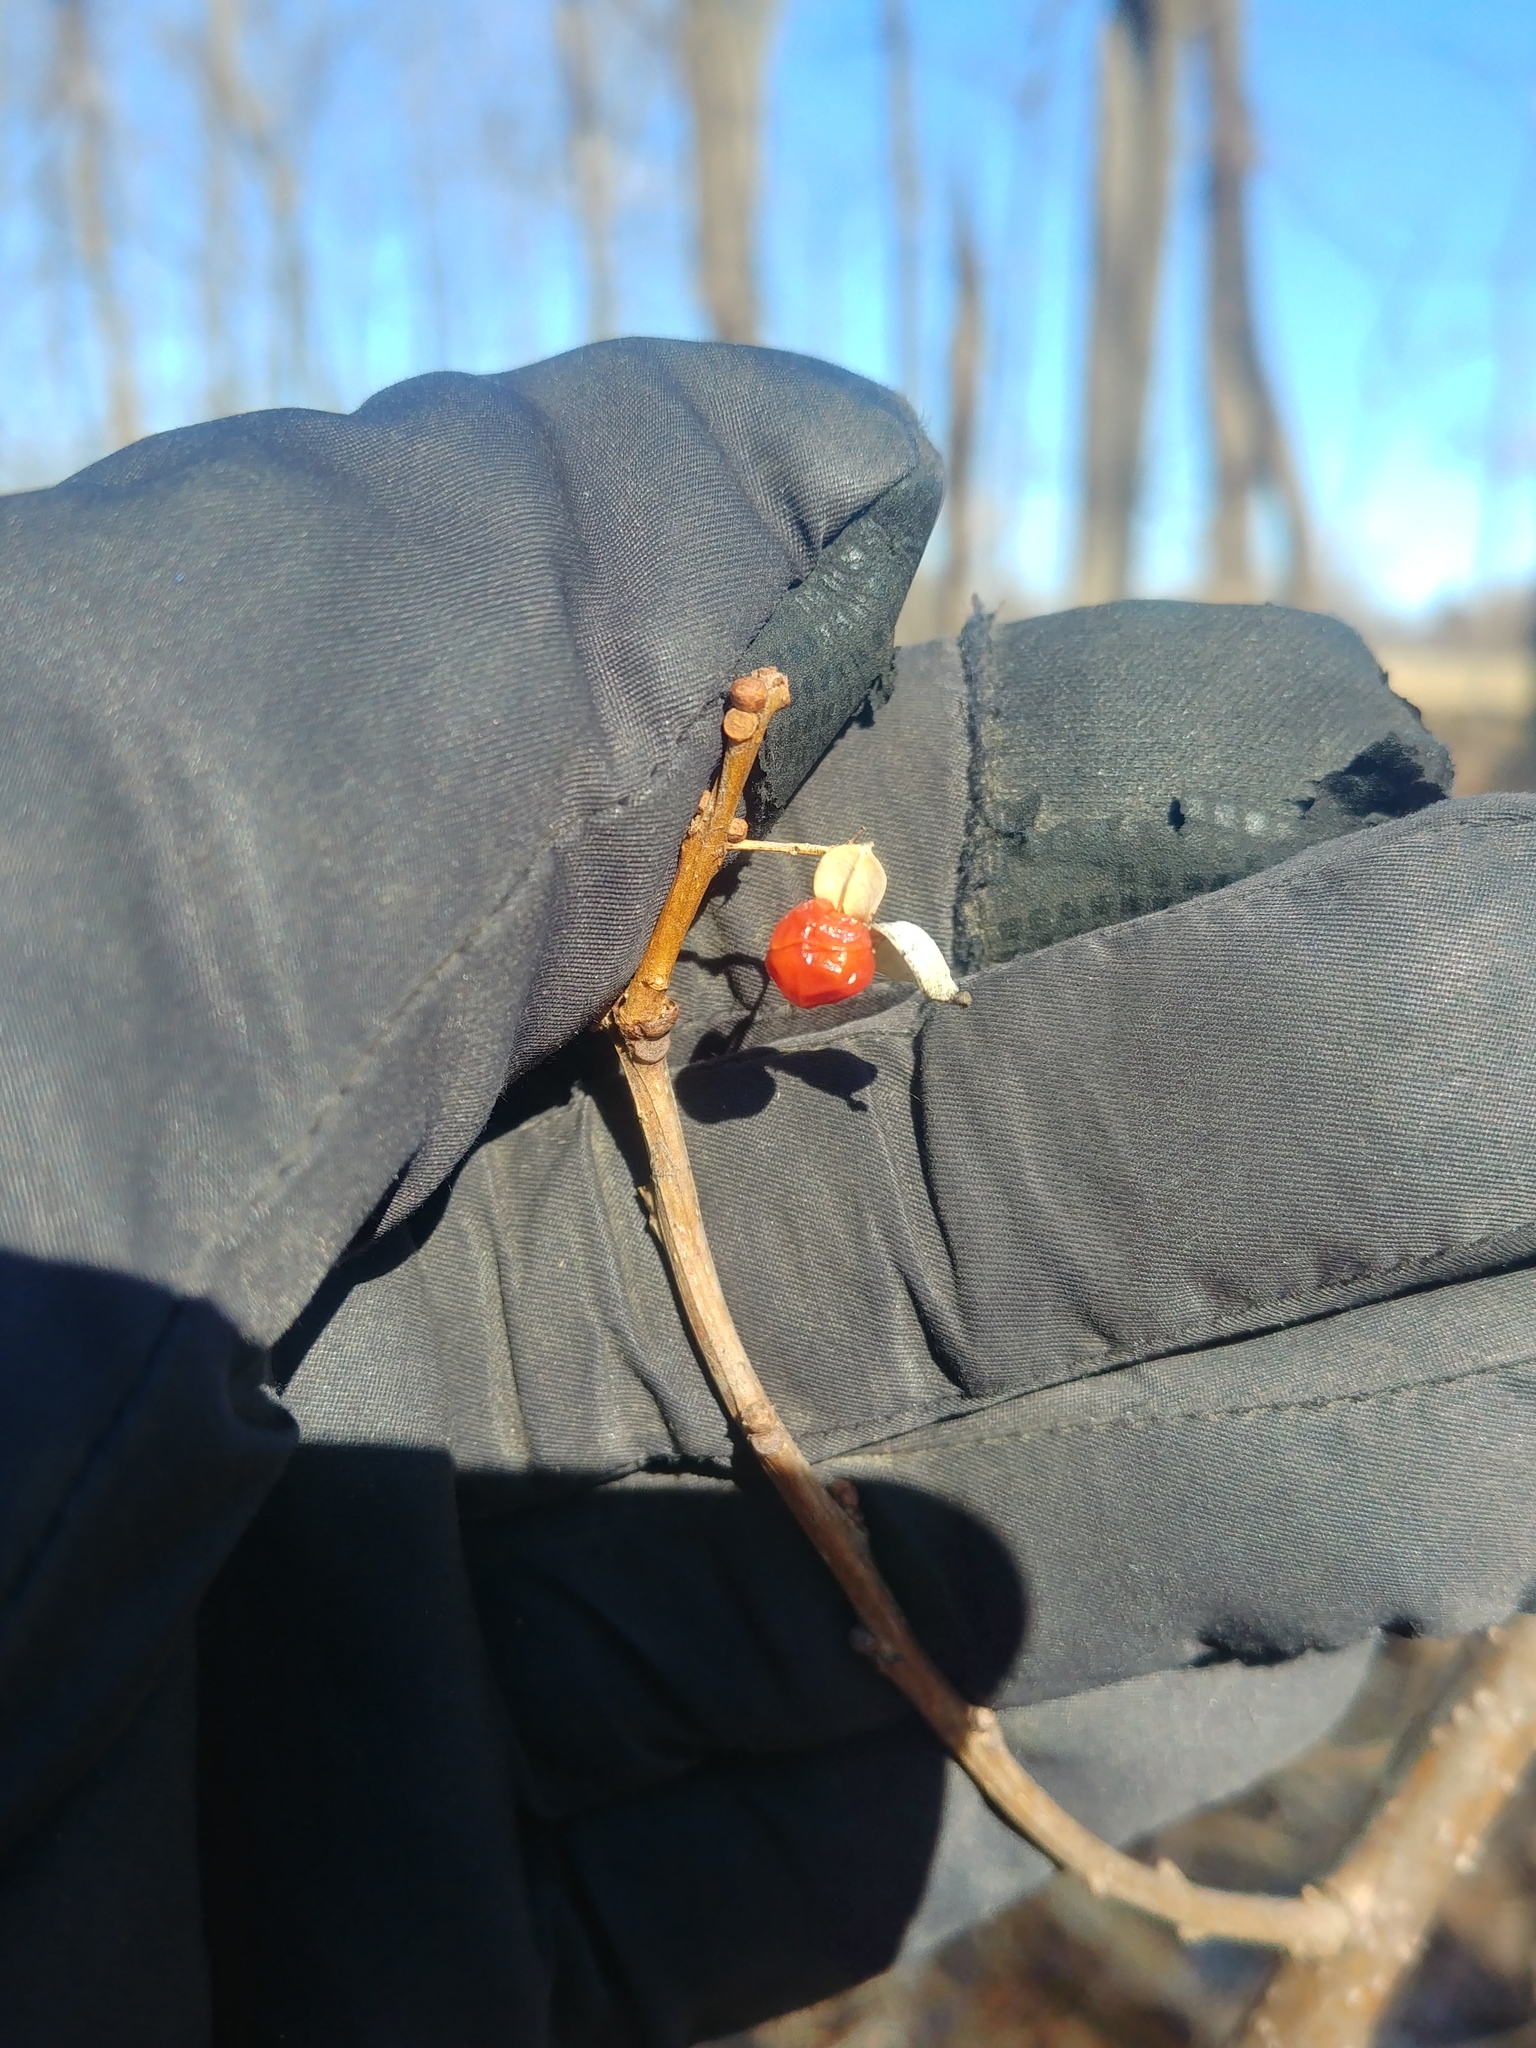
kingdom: Plantae
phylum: Tracheophyta
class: Magnoliopsida
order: Celastrales
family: Celastraceae
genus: Celastrus
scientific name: Celastrus orbiculatus
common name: Oriental bittersweet
